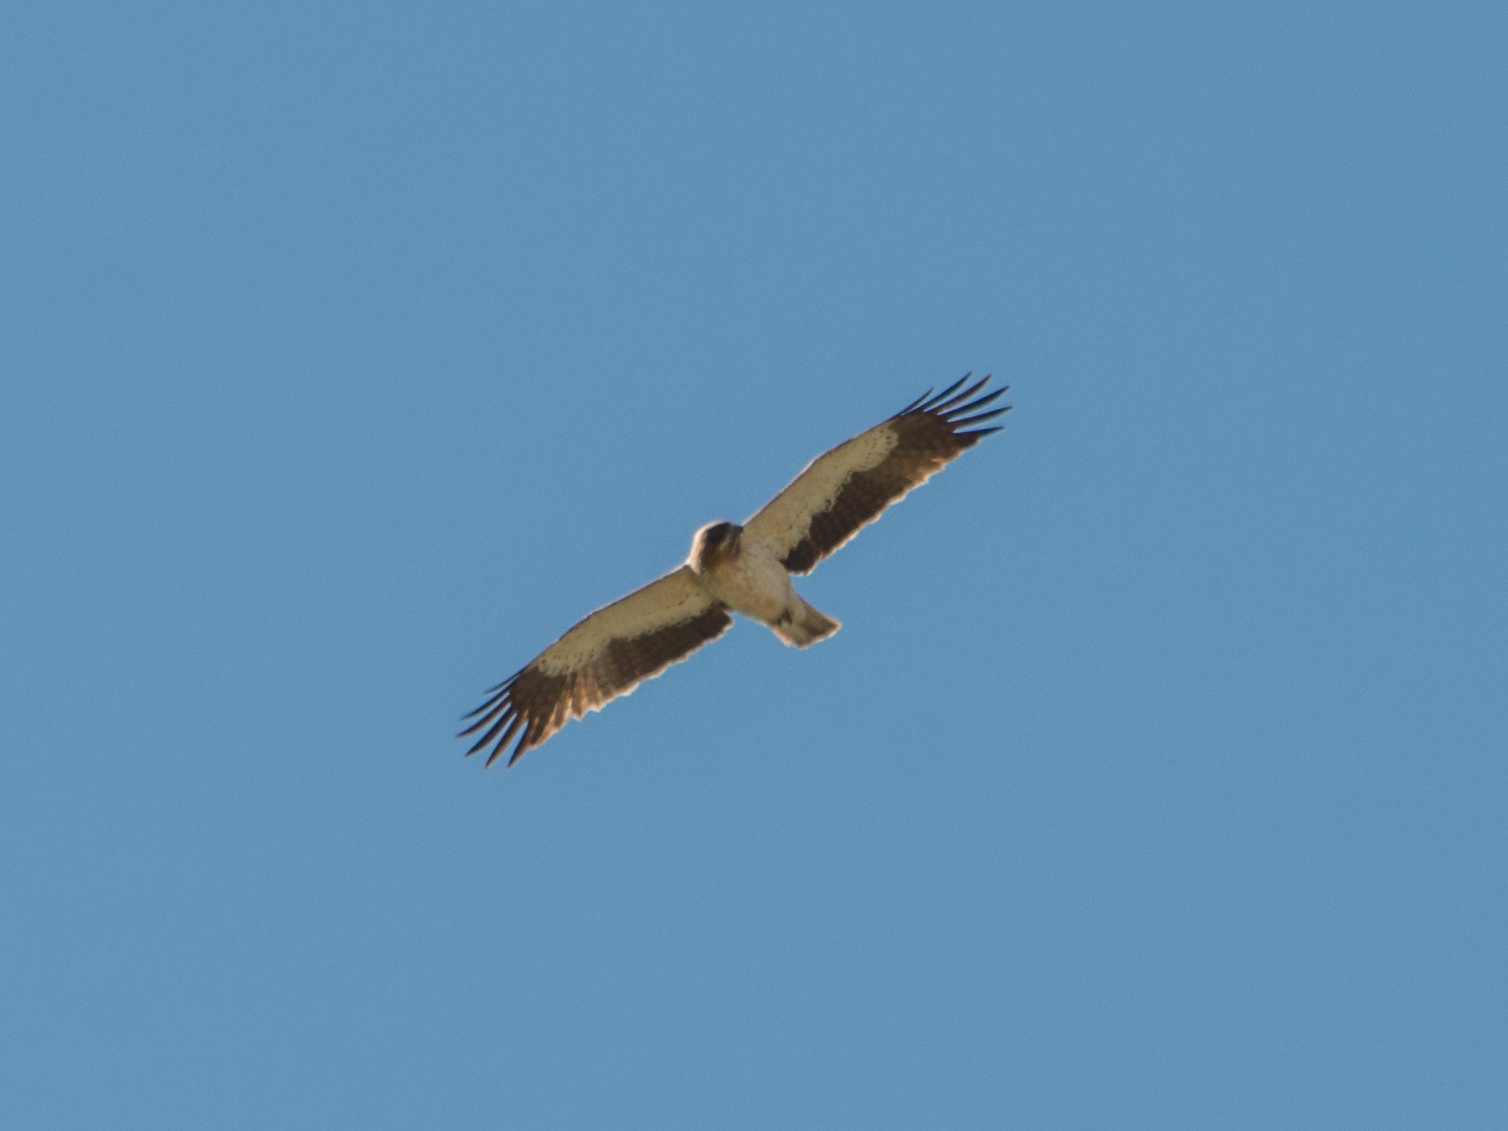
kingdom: Animalia
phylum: Chordata
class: Aves
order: Accipitriformes
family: Accipitridae
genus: Hieraaetus
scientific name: Hieraaetus pennatus
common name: Booted eagle
